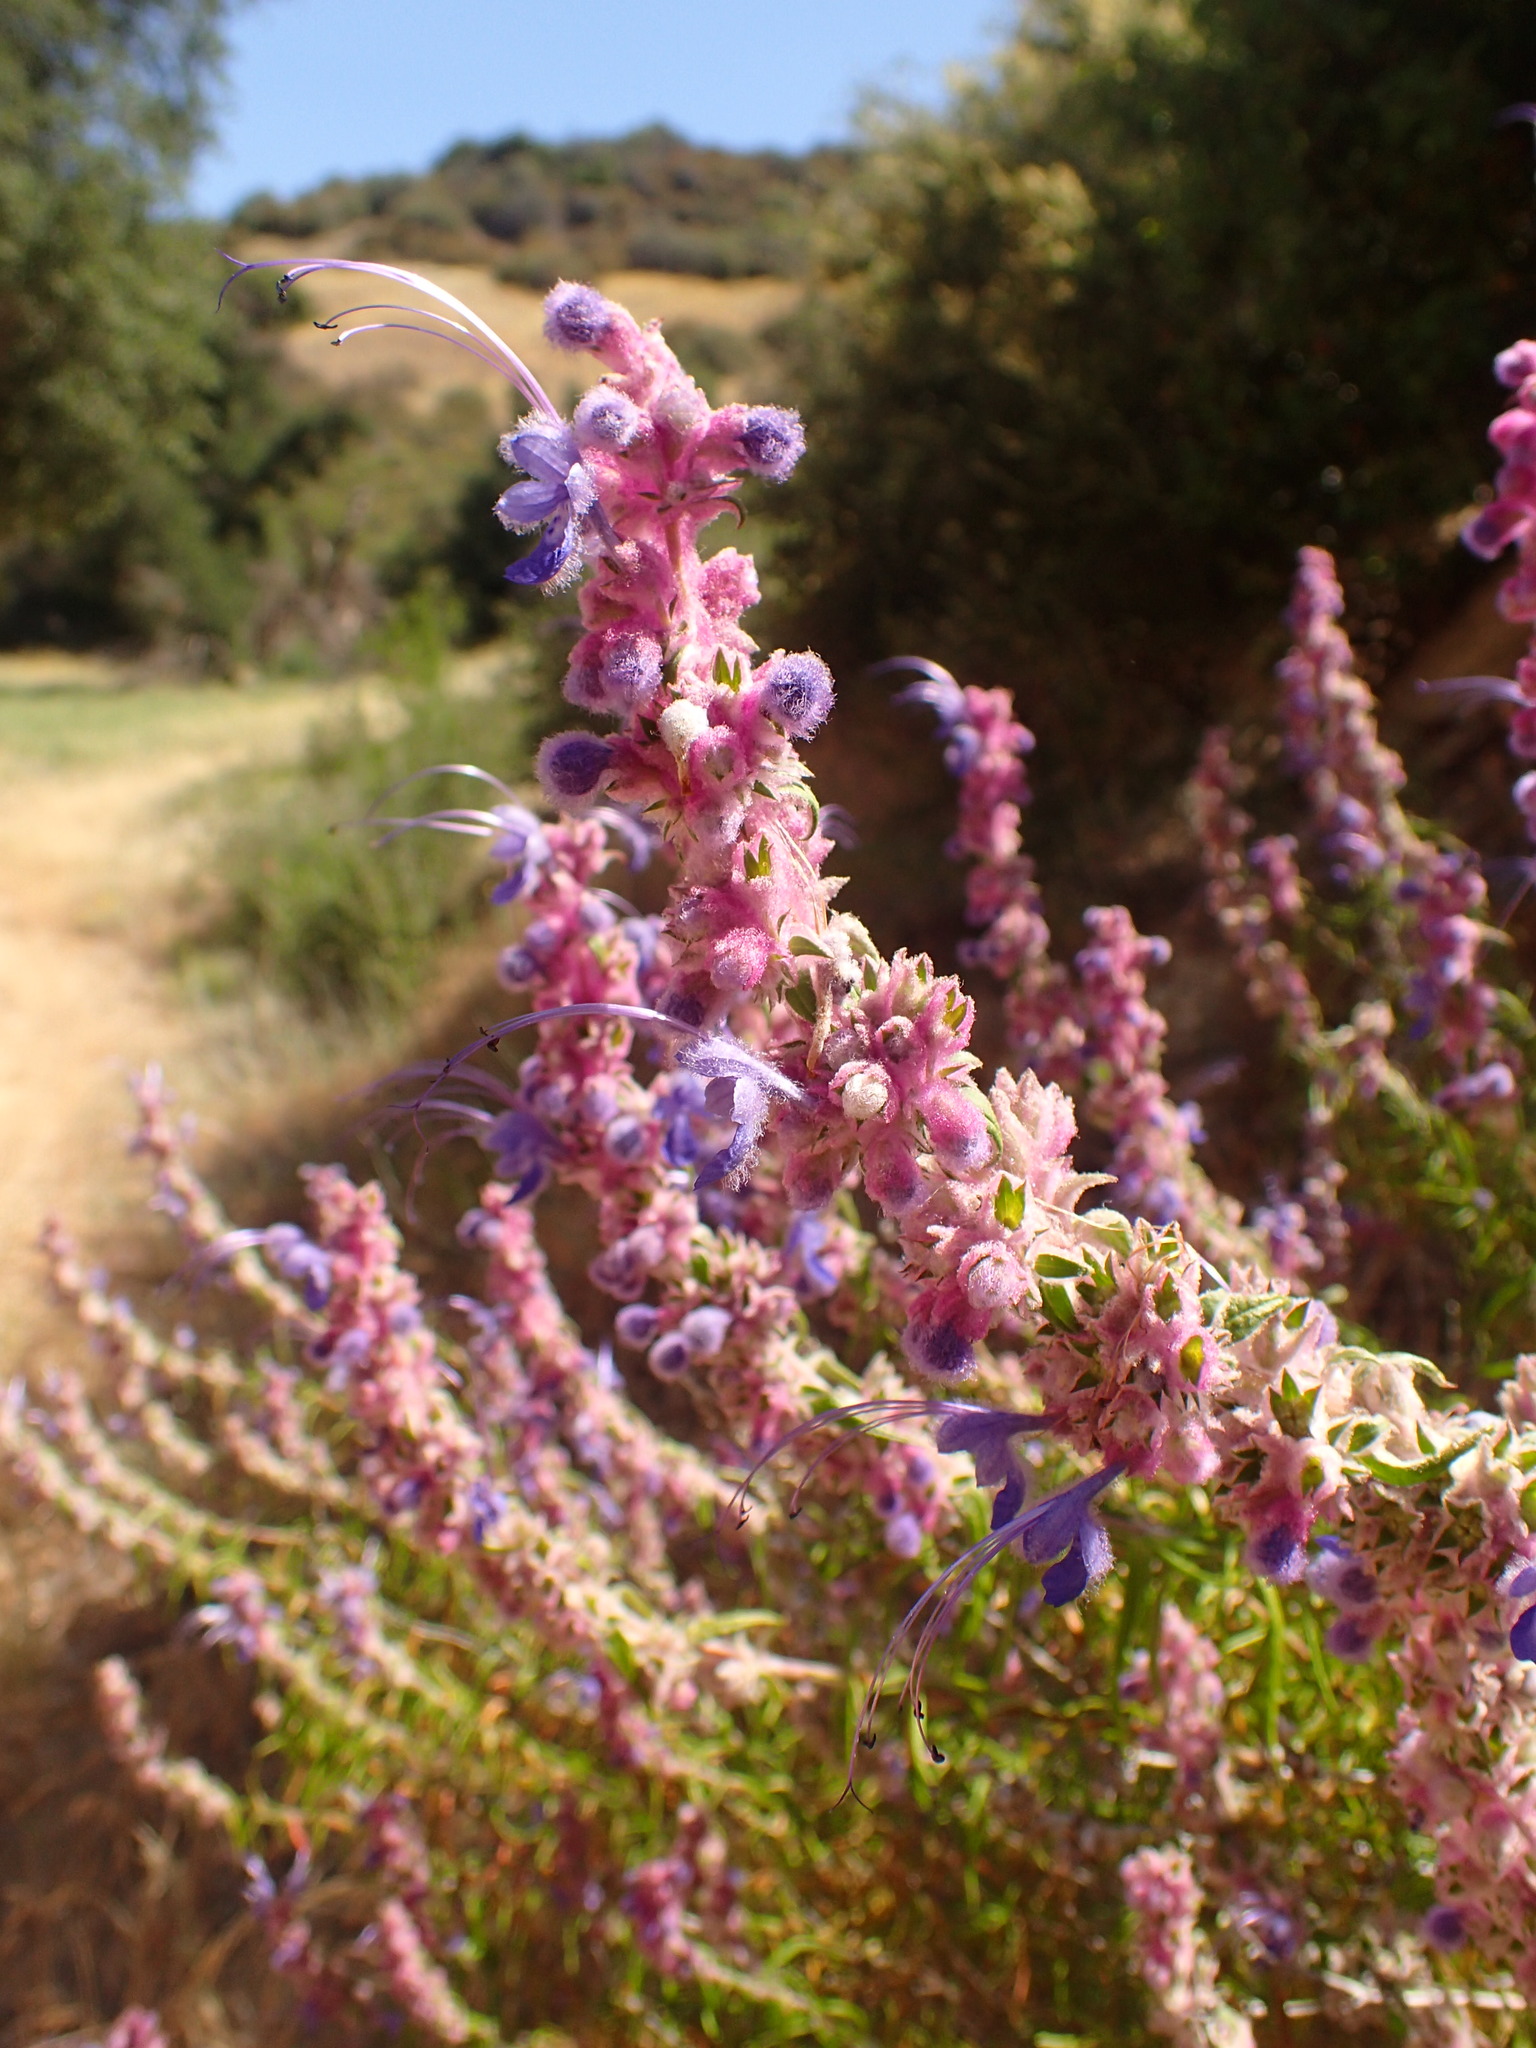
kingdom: Plantae
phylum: Tracheophyta
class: Magnoliopsida
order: Lamiales
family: Lamiaceae
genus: Trichostema
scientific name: Trichostema lanatum
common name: Woolly bluecurls
